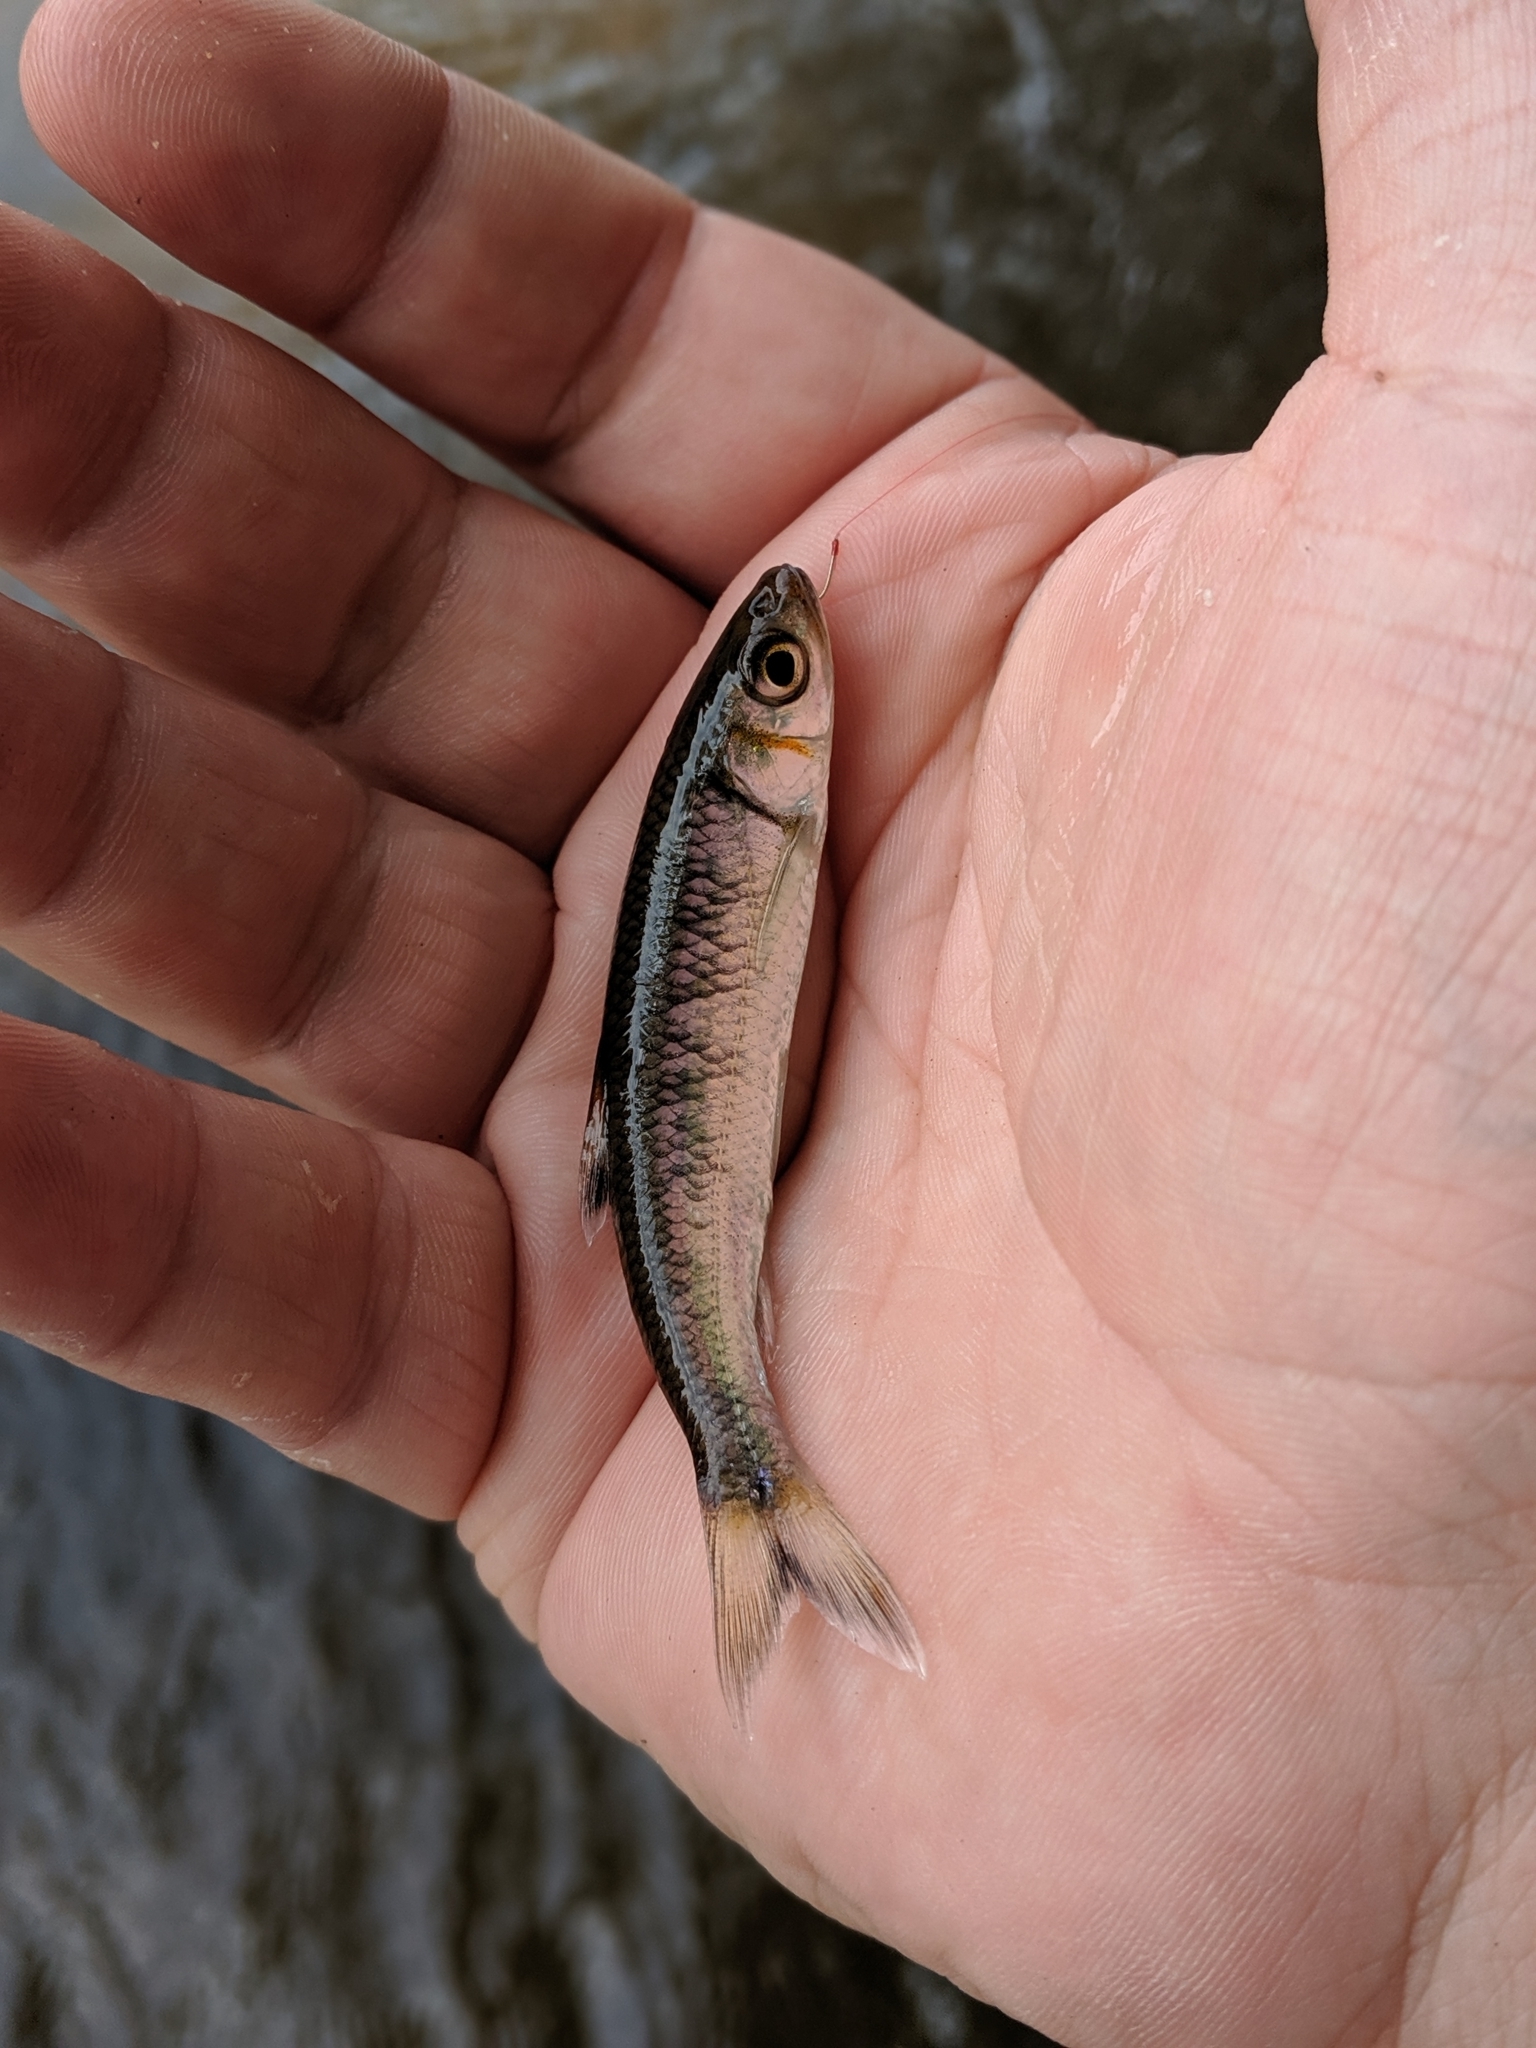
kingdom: Animalia
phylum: Chordata
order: Cypriniformes
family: Cyprinidae
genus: Luxilus
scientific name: Luxilus
